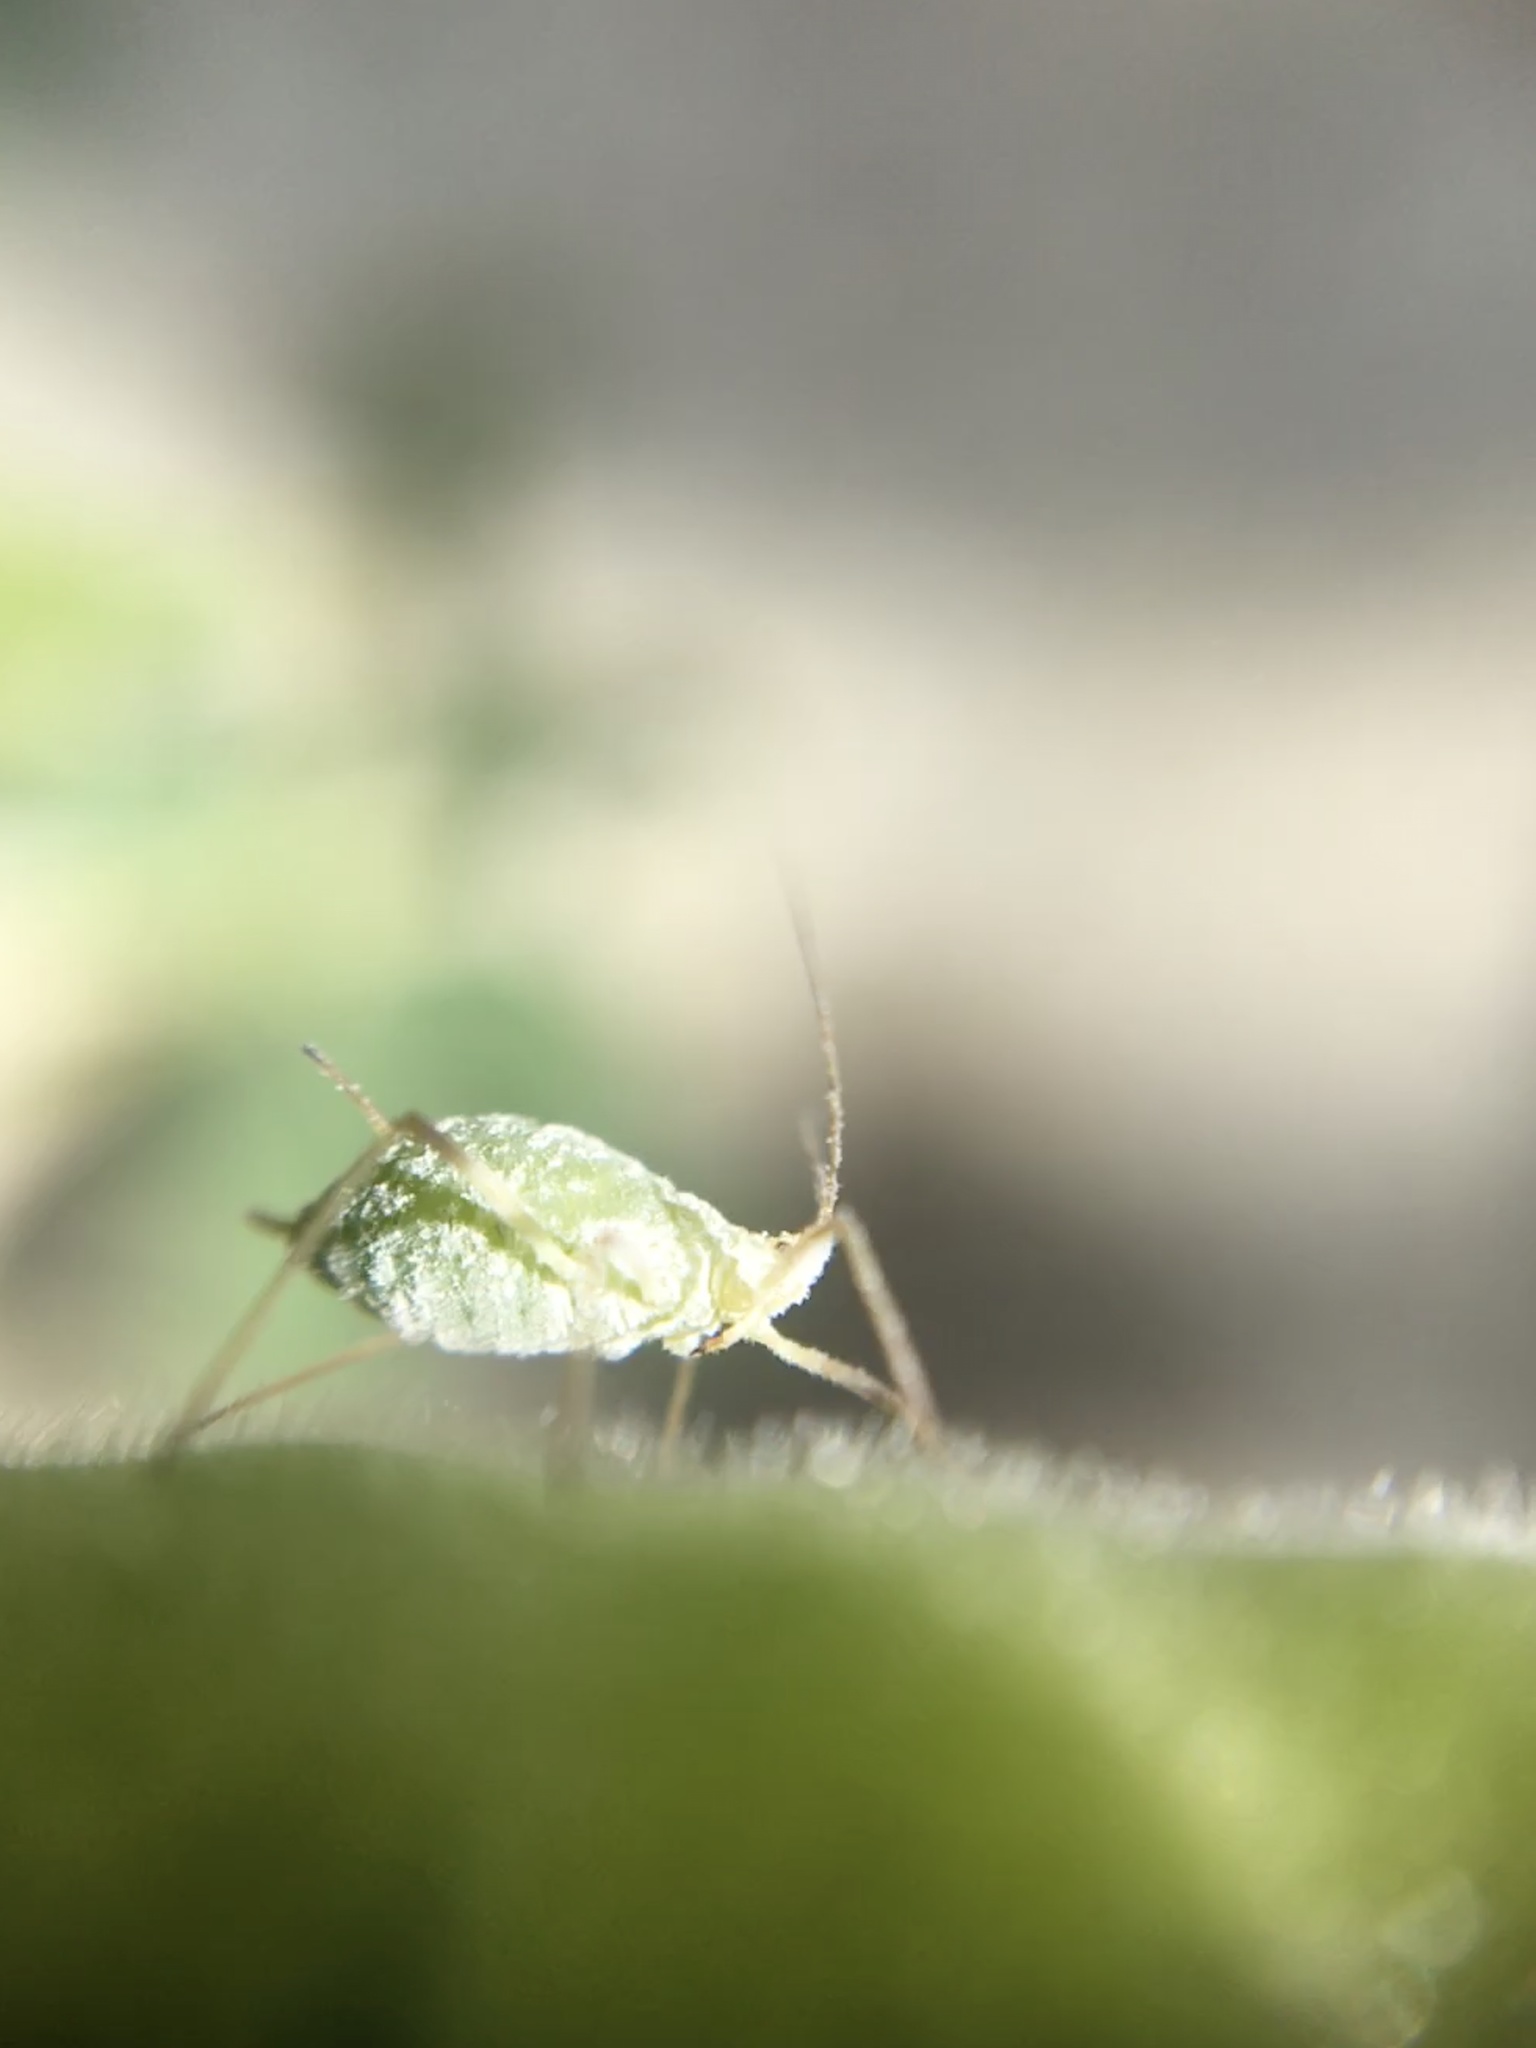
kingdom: Animalia
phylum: Arthropoda
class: Insecta
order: Hemiptera
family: Aphididae
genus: Macrosiphum
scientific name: Macrosiphum albifrons
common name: Lupine aphid
